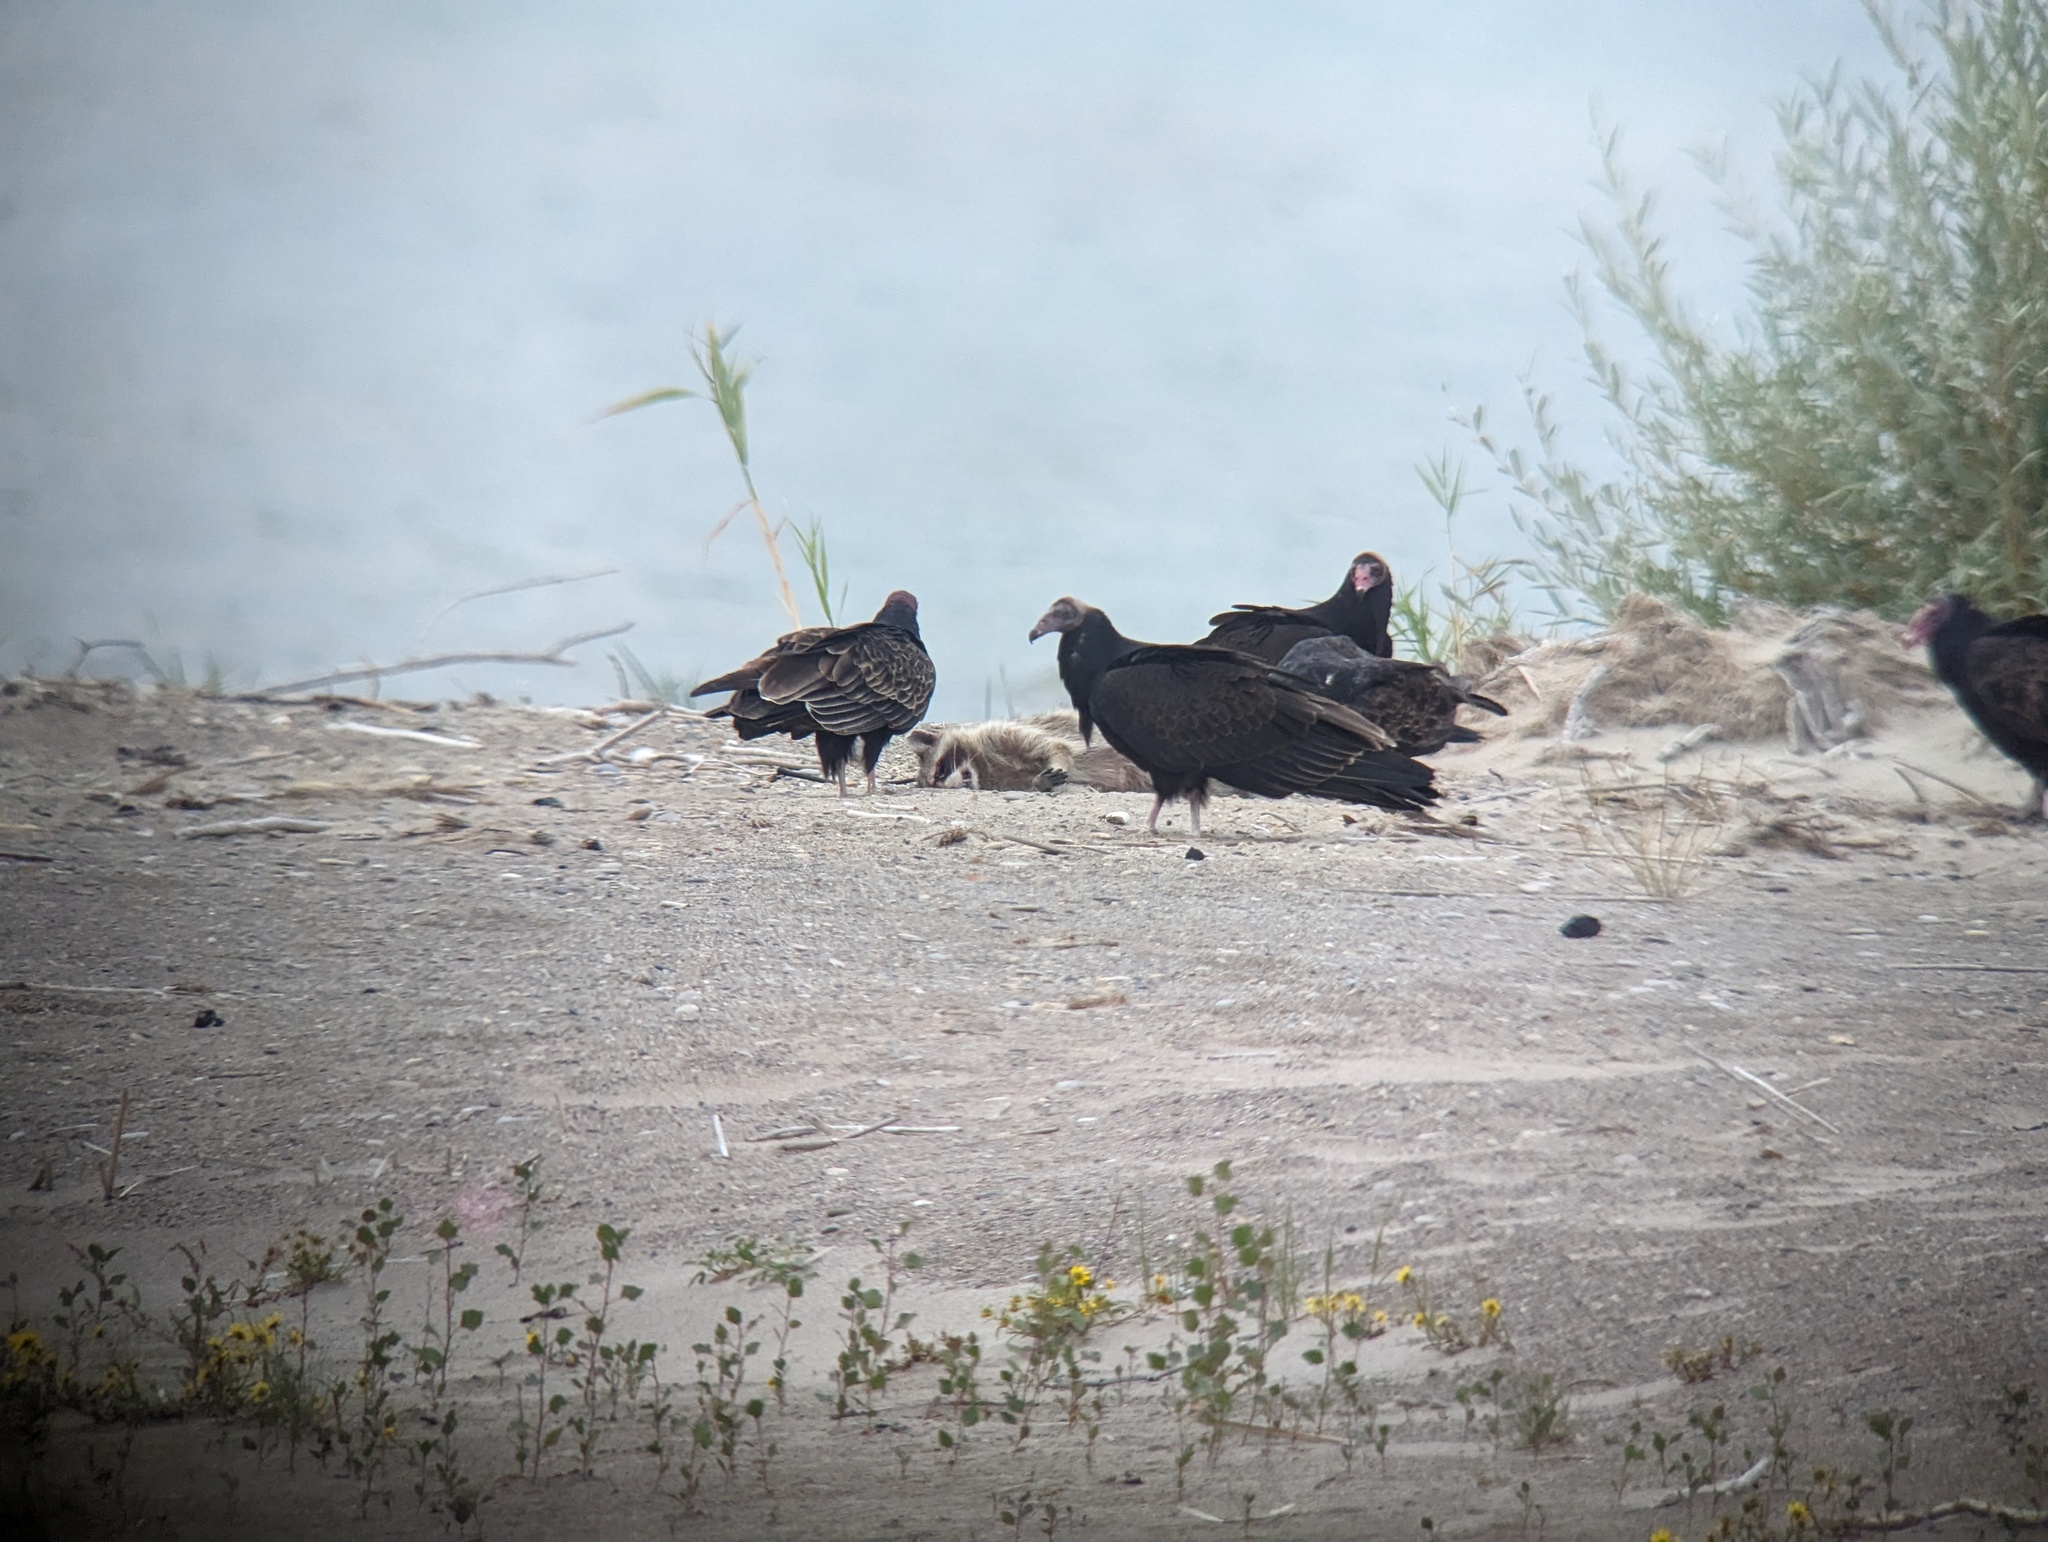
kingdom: Animalia
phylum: Chordata
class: Mammalia
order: Carnivora
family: Procyonidae
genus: Procyon
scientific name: Procyon lotor
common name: Raccoon
